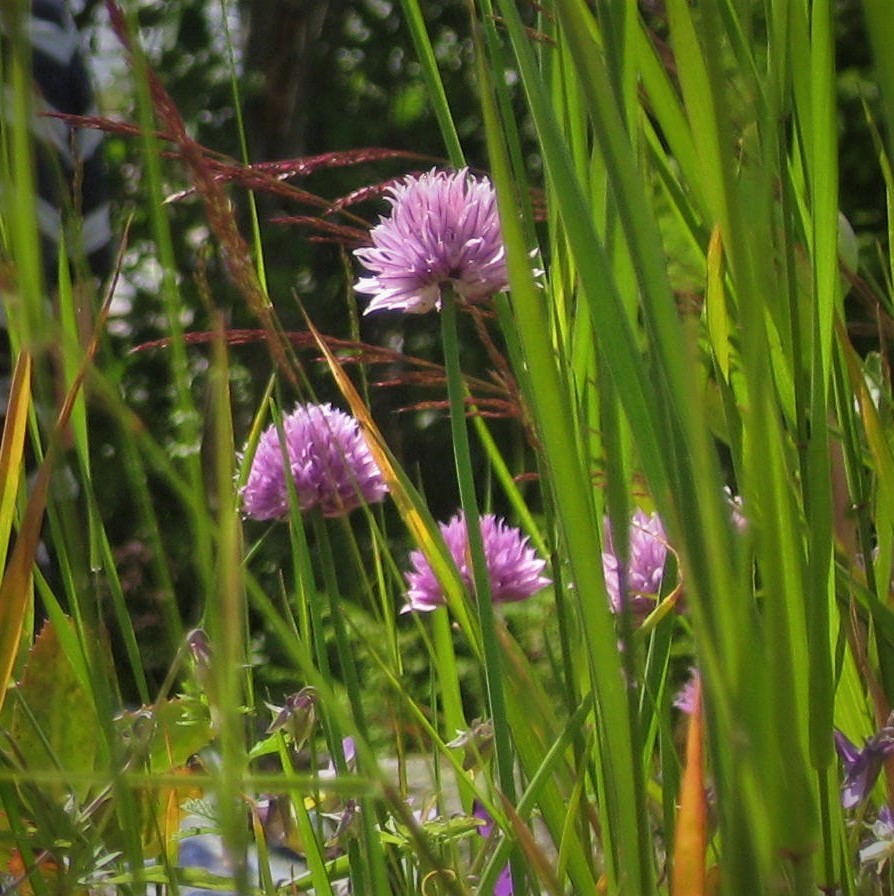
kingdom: Plantae
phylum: Tracheophyta
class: Liliopsida
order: Asparagales
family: Amaryllidaceae
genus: Allium
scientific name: Allium schoenoprasum
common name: Chives
